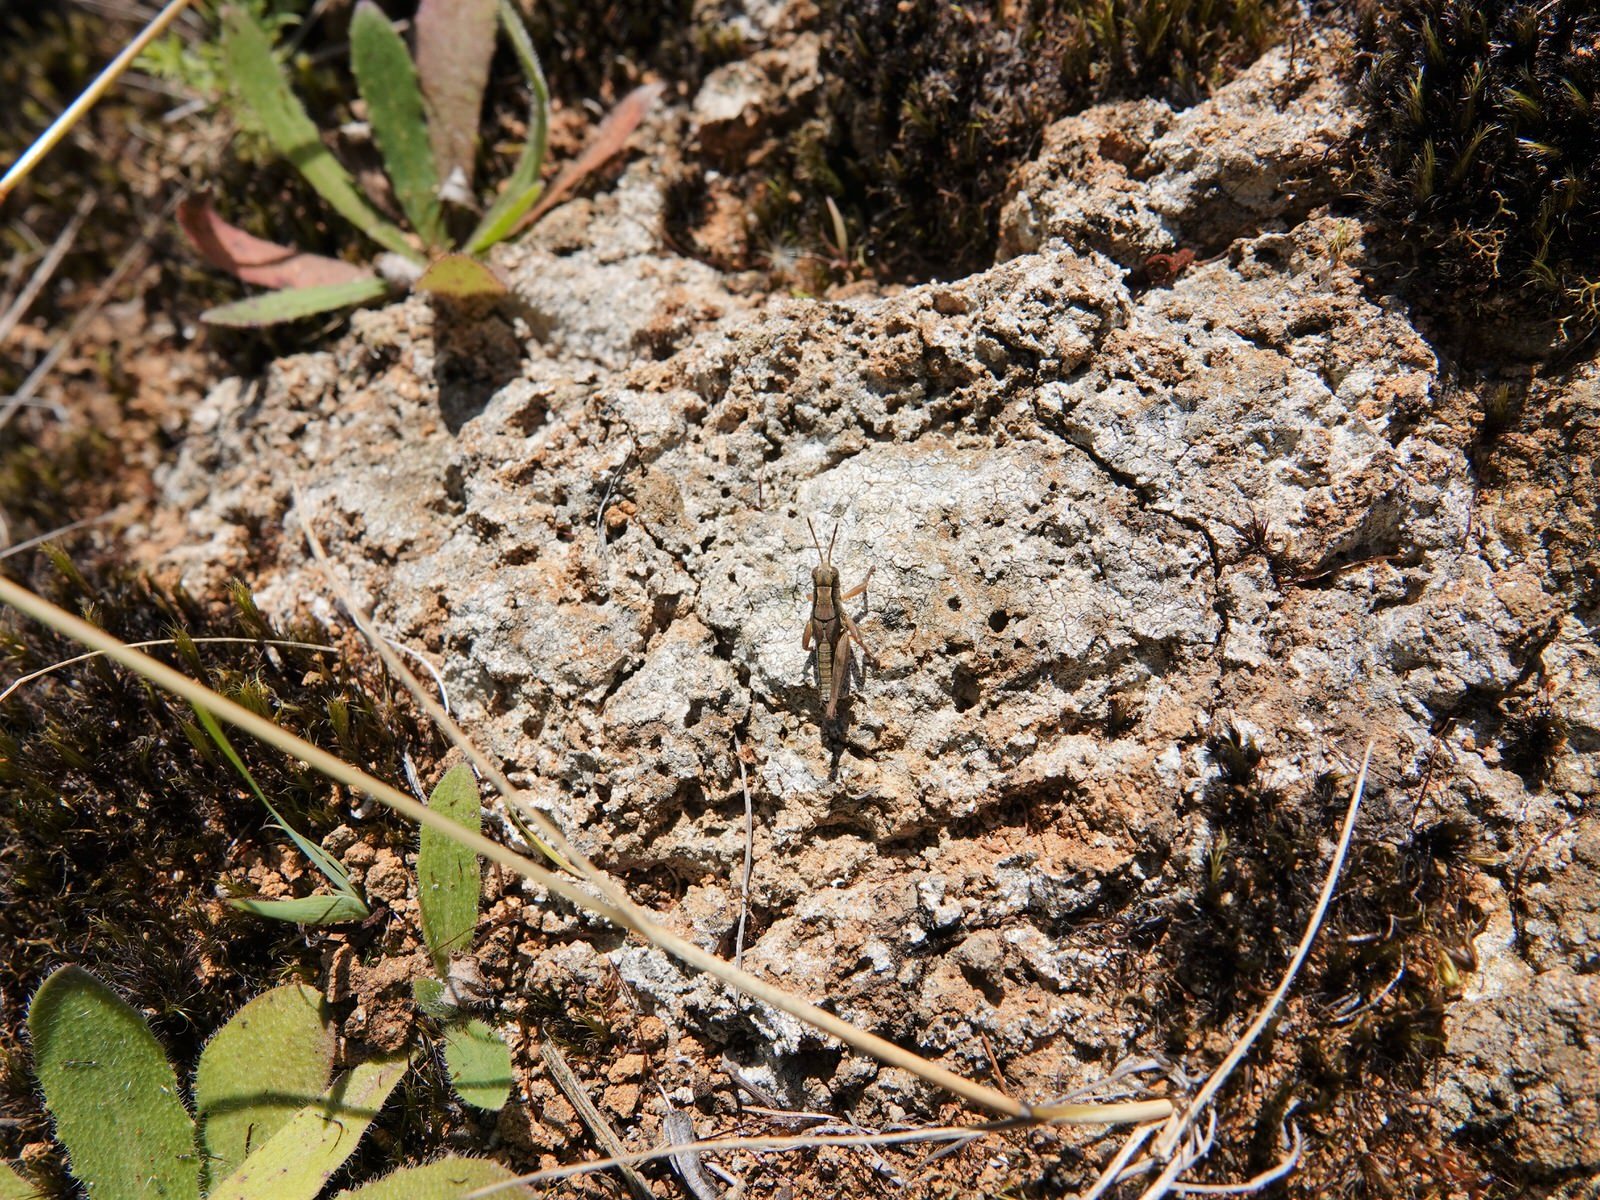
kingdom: Animalia
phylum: Arthropoda
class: Insecta
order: Orthoptera
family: Acrididae
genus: Phaulacridium
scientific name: Phaulacridium marginale
